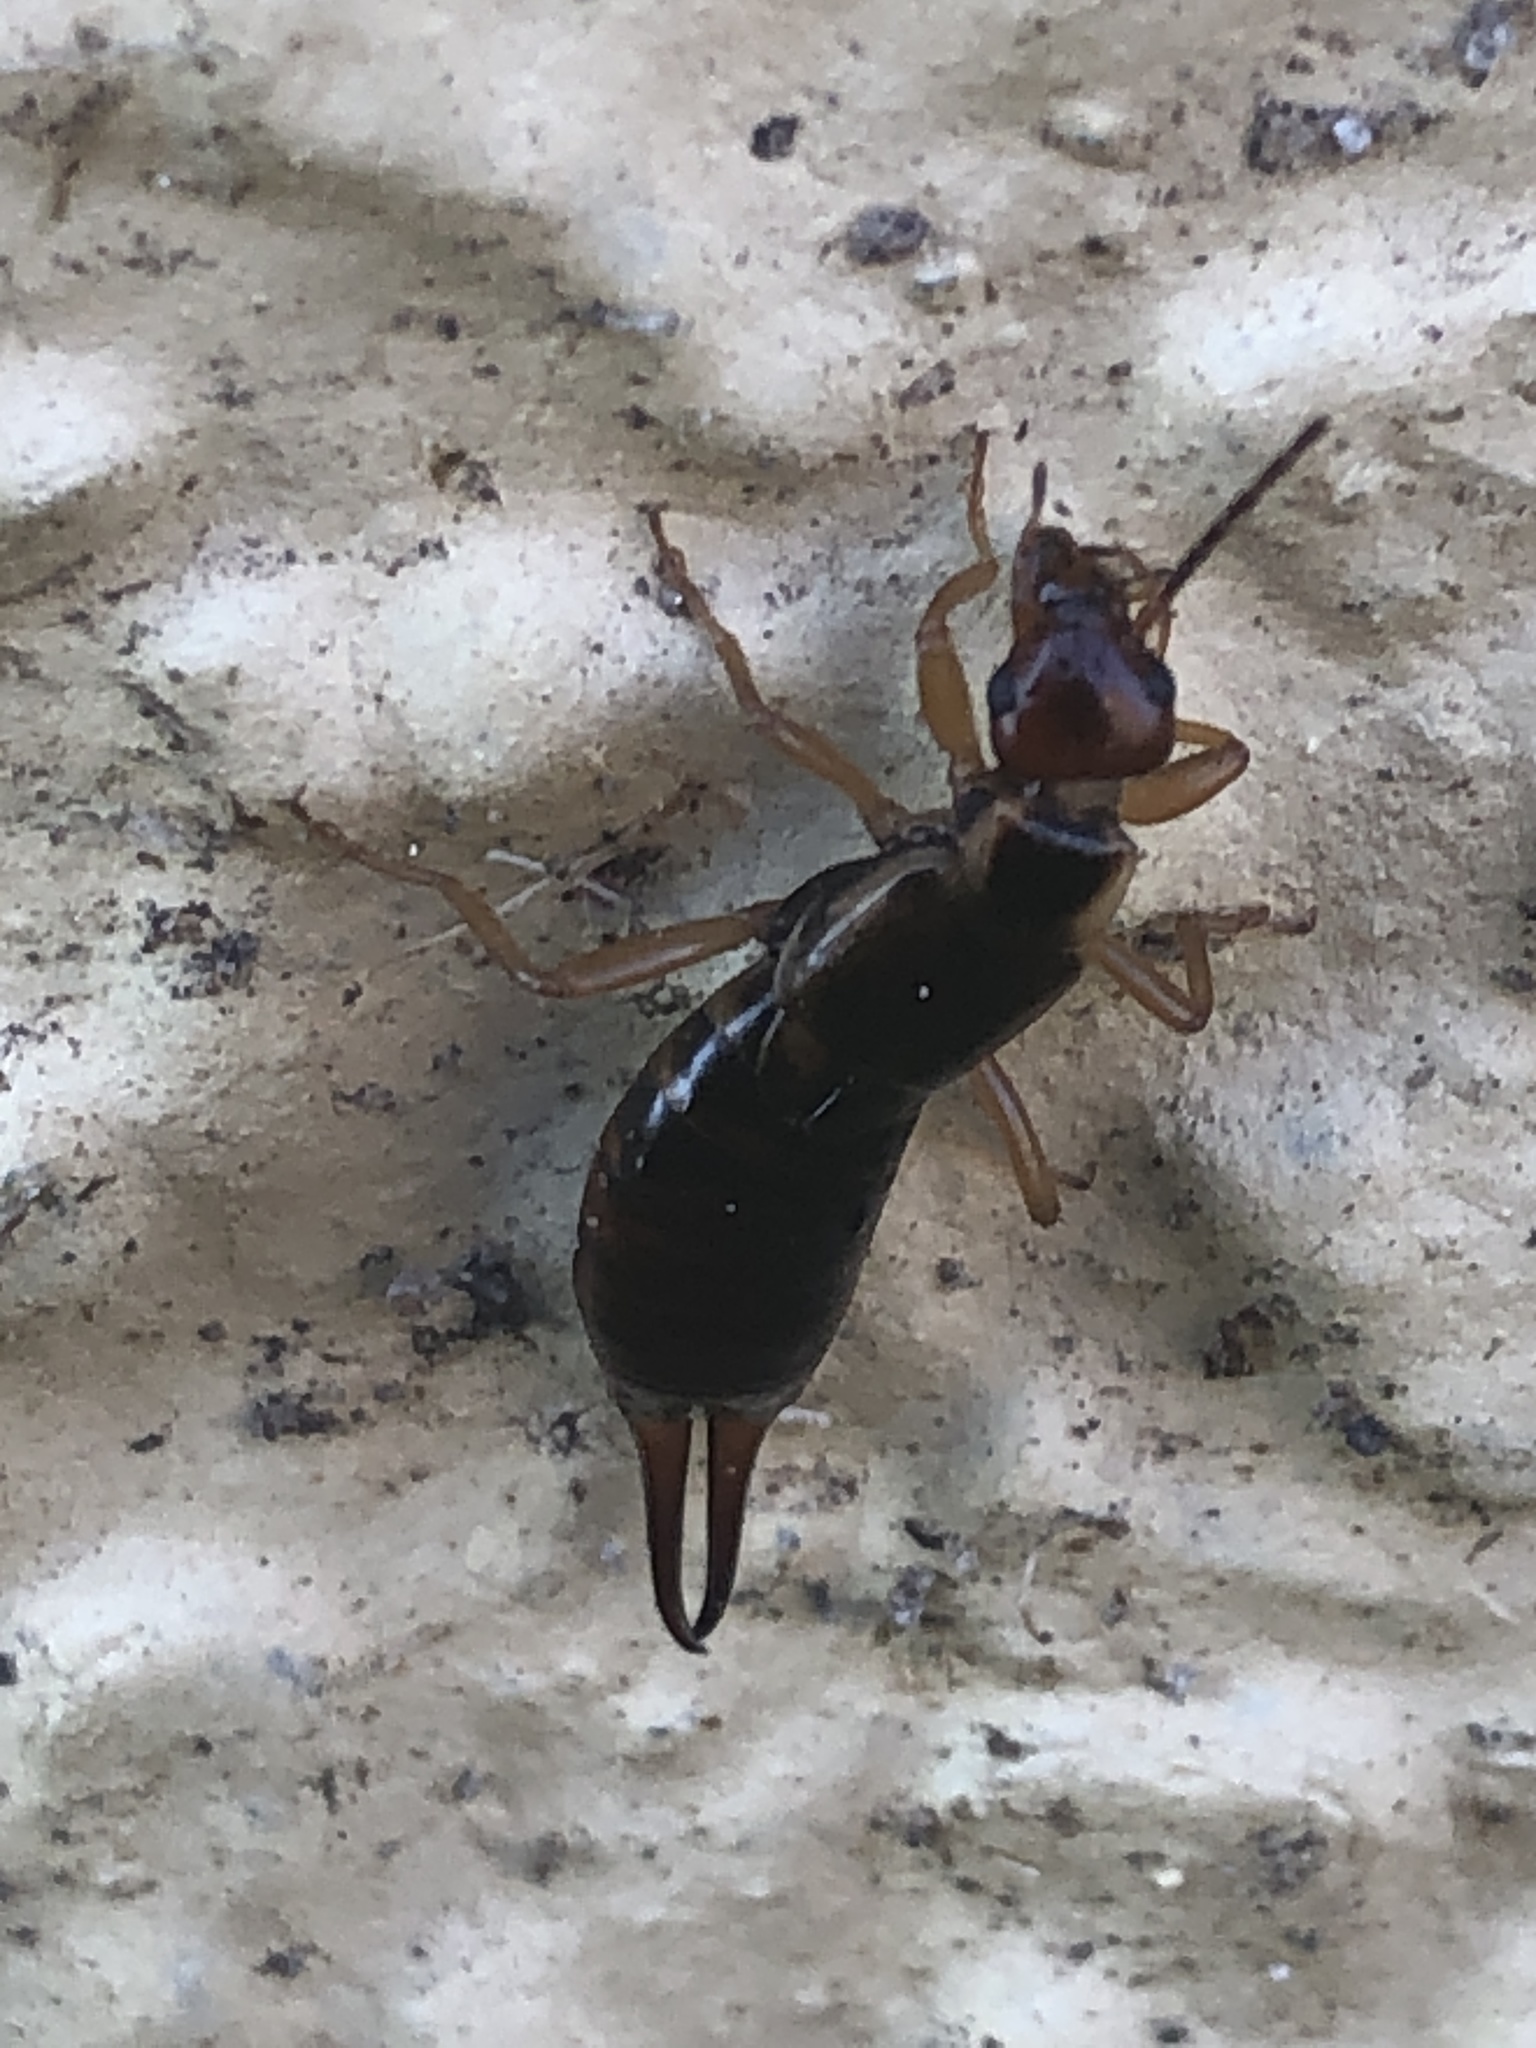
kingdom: Animalia
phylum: Arthropoda
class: Insecta
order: Dermaptera
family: Forficulidae
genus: Forficula
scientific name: Forficula
